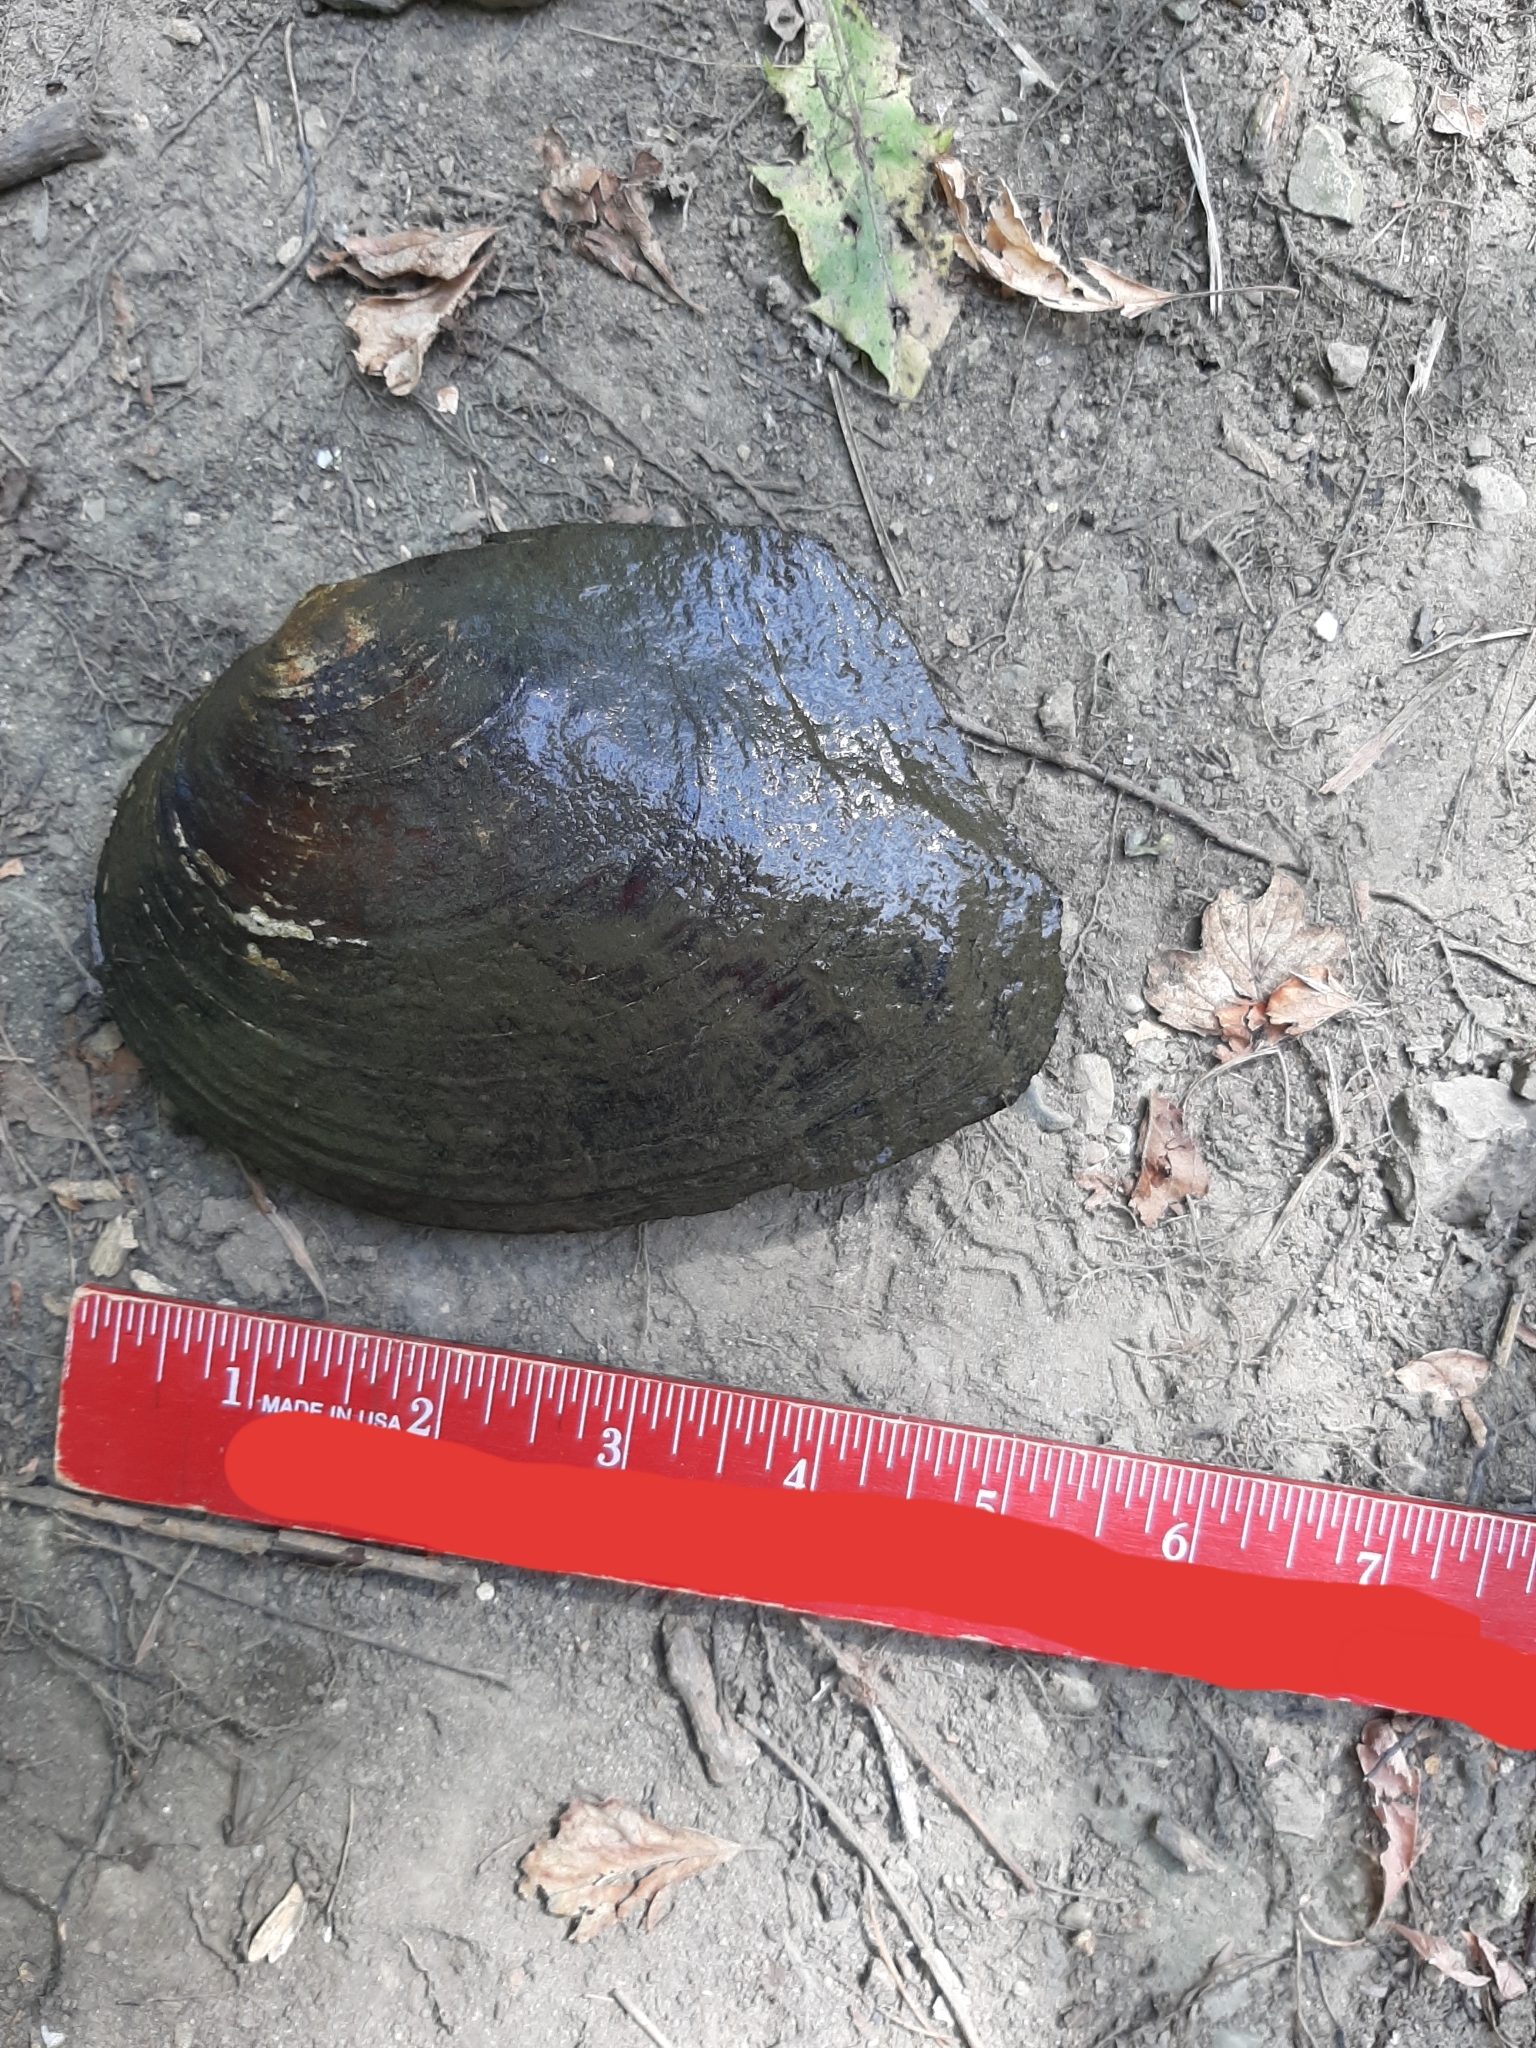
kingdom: Animalia
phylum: Mollusca
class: Bivalvia
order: Unionida
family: Unionidae
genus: Lasmigona
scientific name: Lasmigona complanata
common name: White heelsplitter
